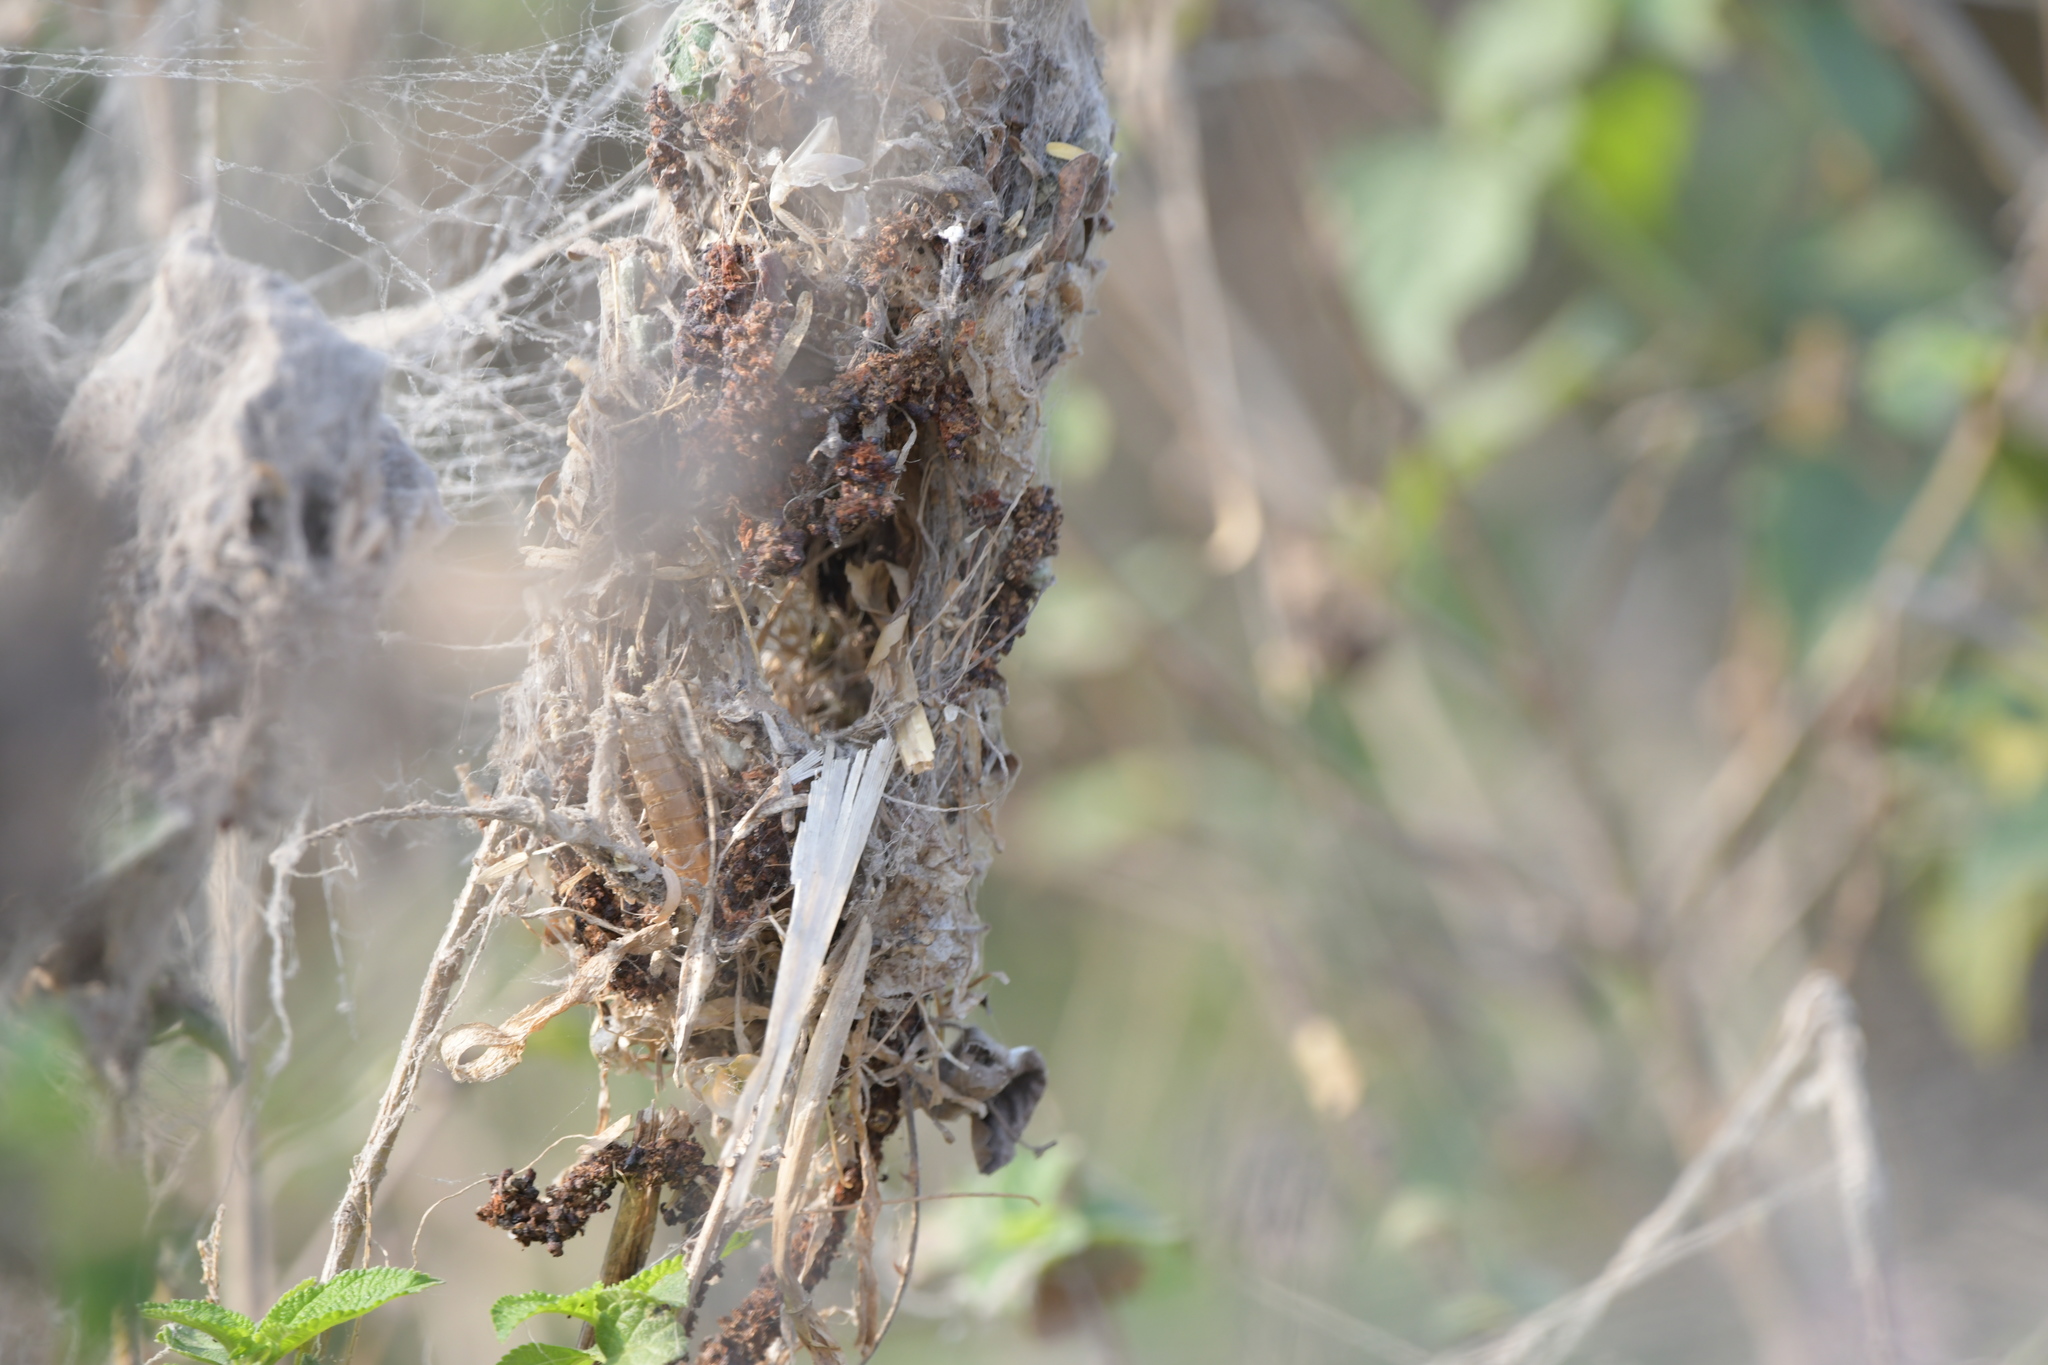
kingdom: Animalia
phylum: Chordata
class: Aves
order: Passeriformes
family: Nectariniidae
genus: Cinnyris
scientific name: Cinnyris asiaticus
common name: Purple sunbird
